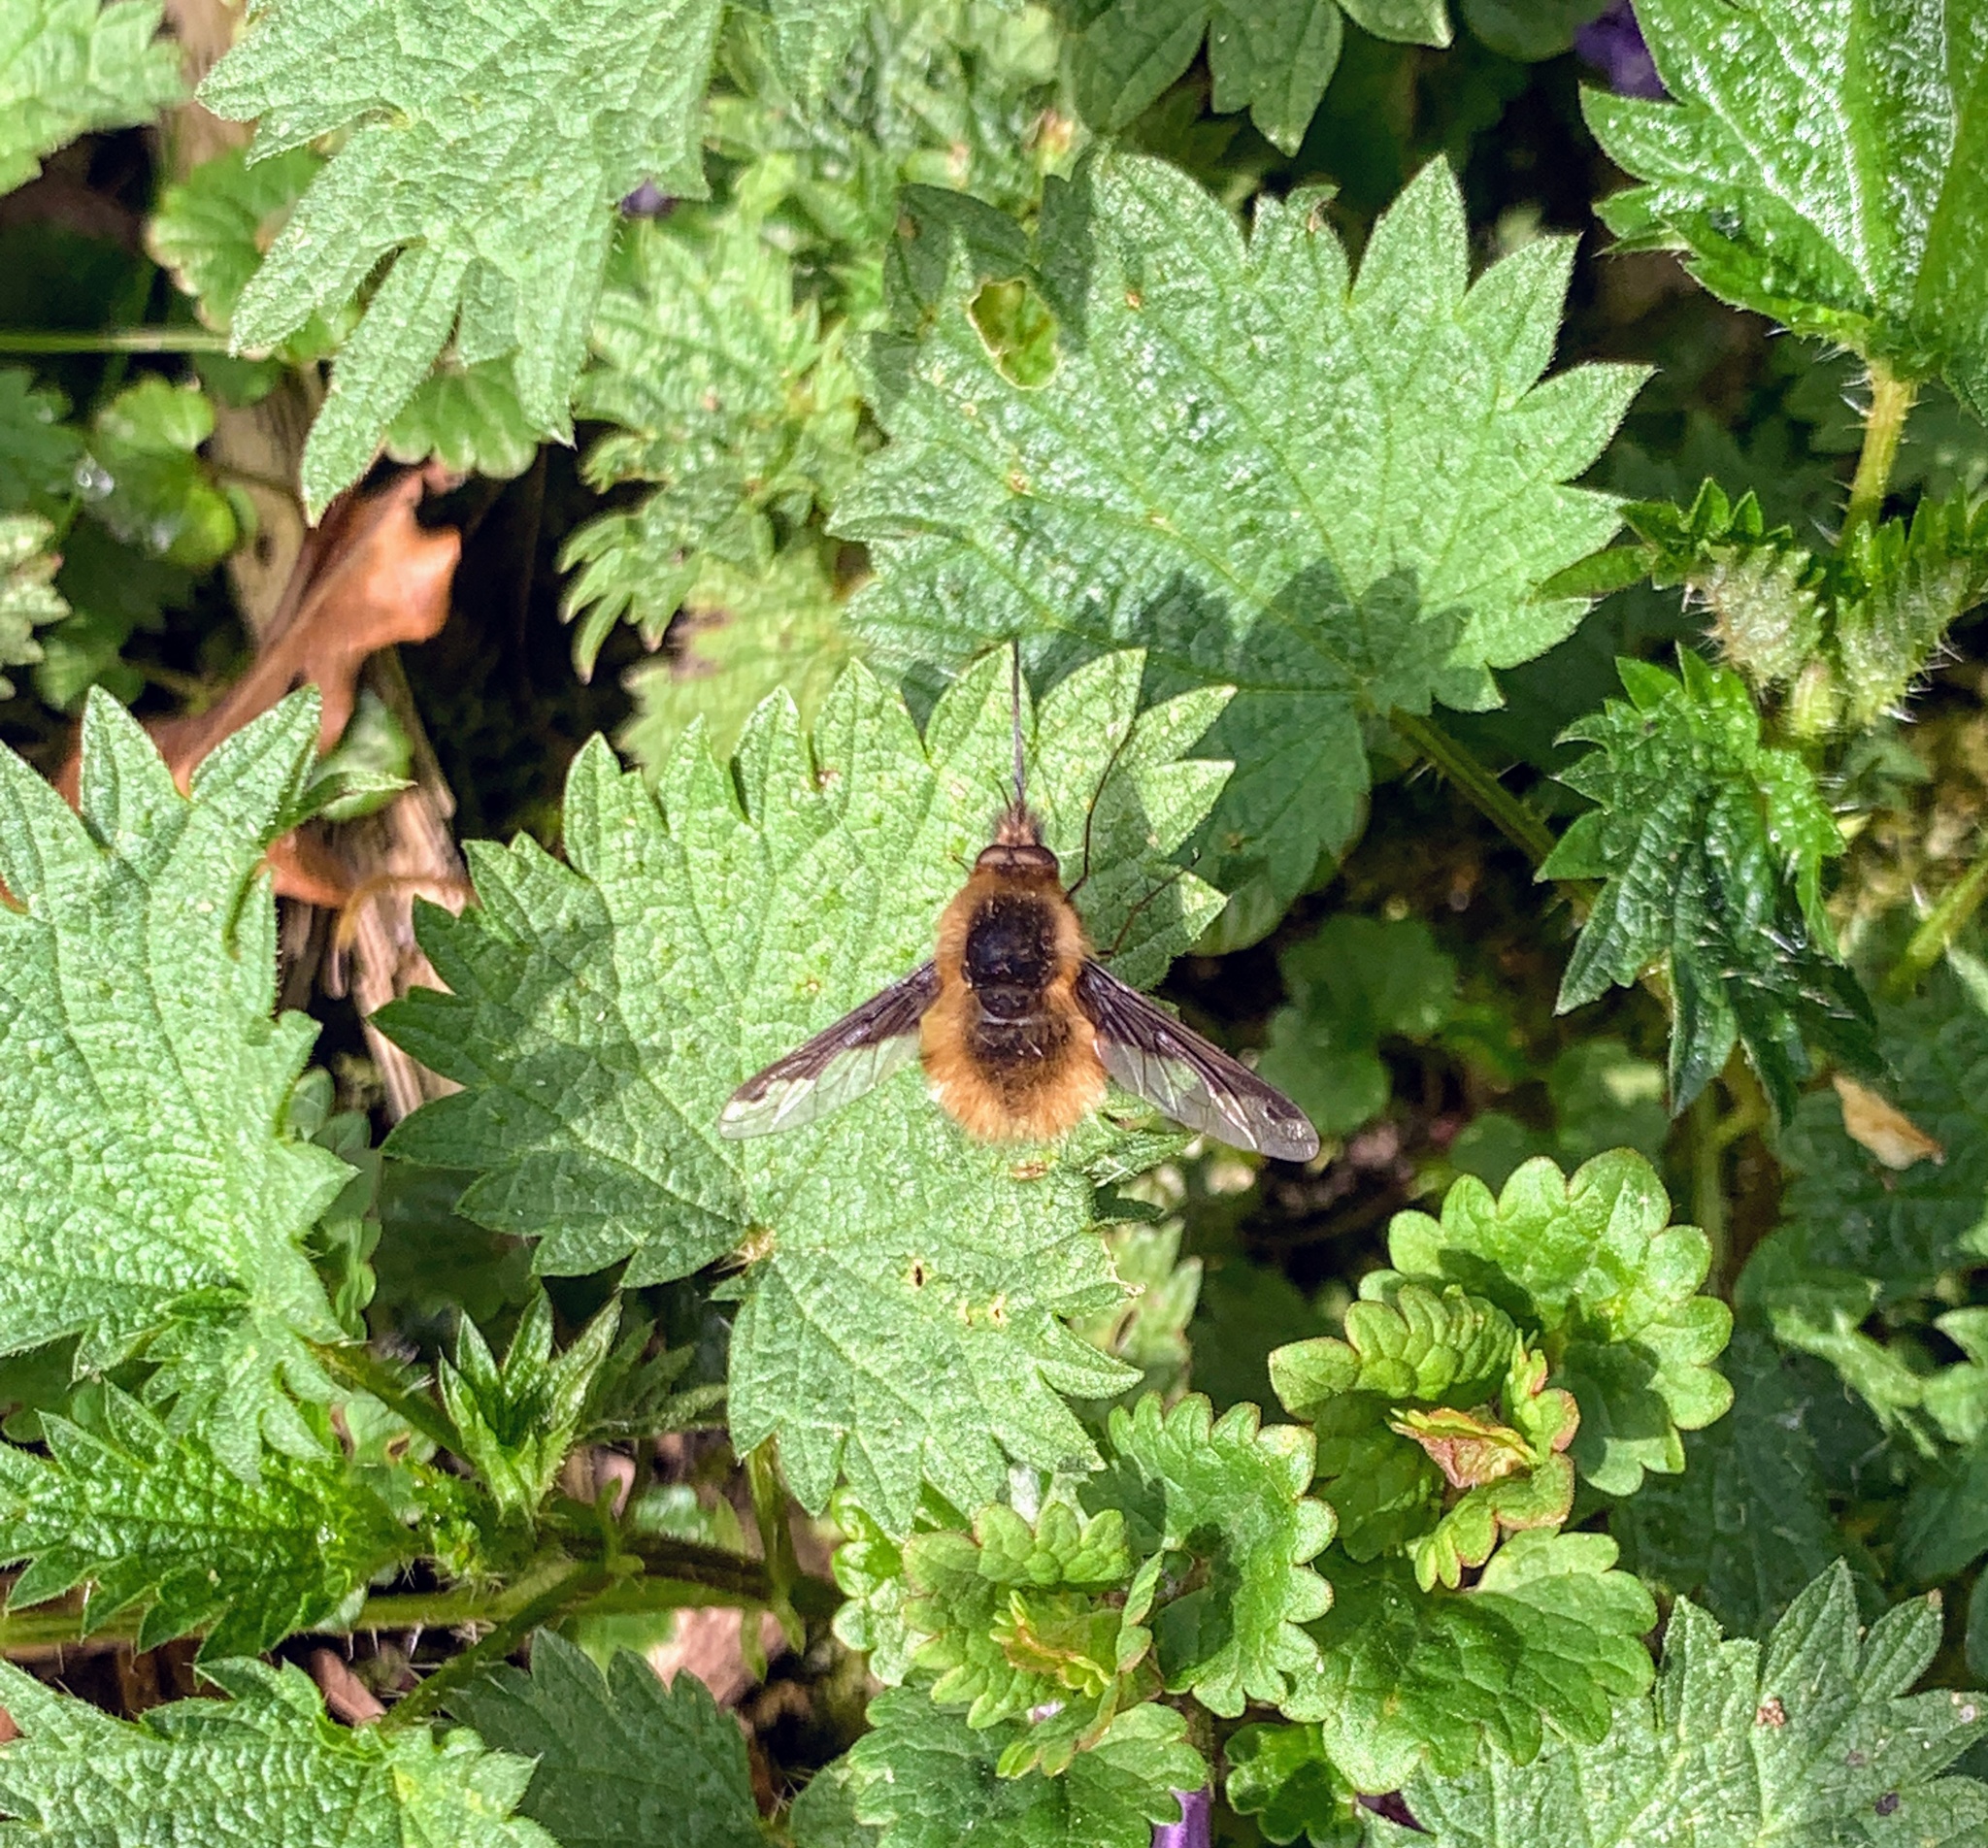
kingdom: Animalia
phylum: Arthropoda
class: Insecta
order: Diptera
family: Bombyliidae
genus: Bombylius
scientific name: Bombylius major
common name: Bee fly
